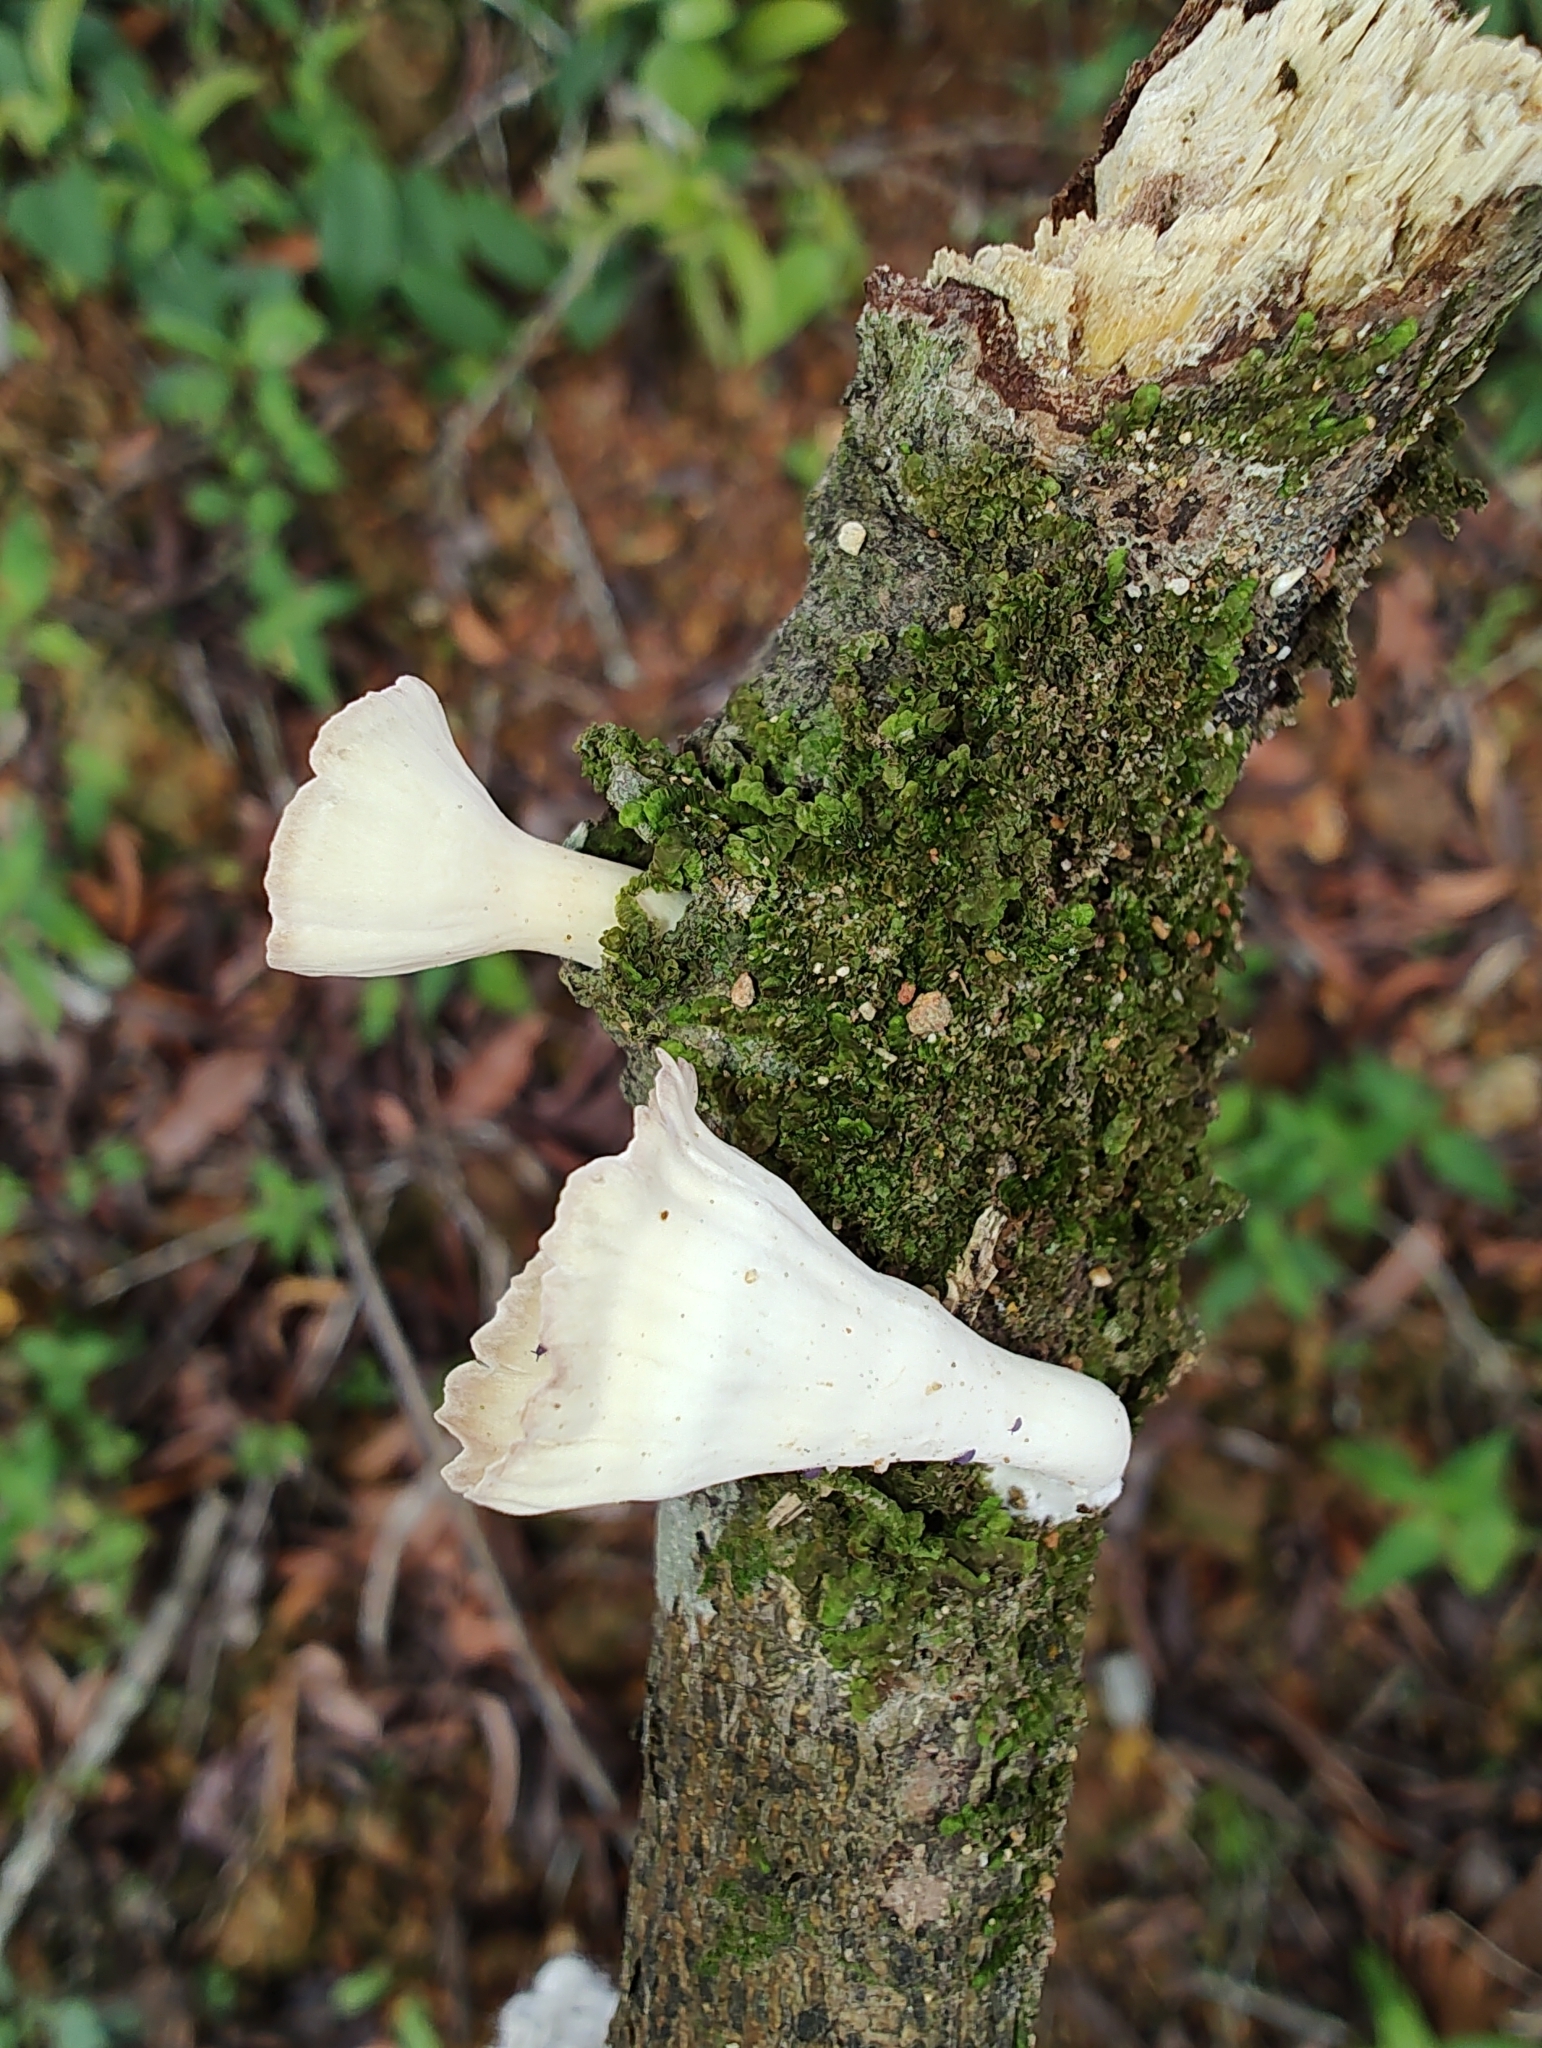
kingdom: Fungi
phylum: Basidiomycota
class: Agaricomycetes
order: Polyporales
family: Panaceae
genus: Cymatoderma
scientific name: Cymatoderma caperatum
